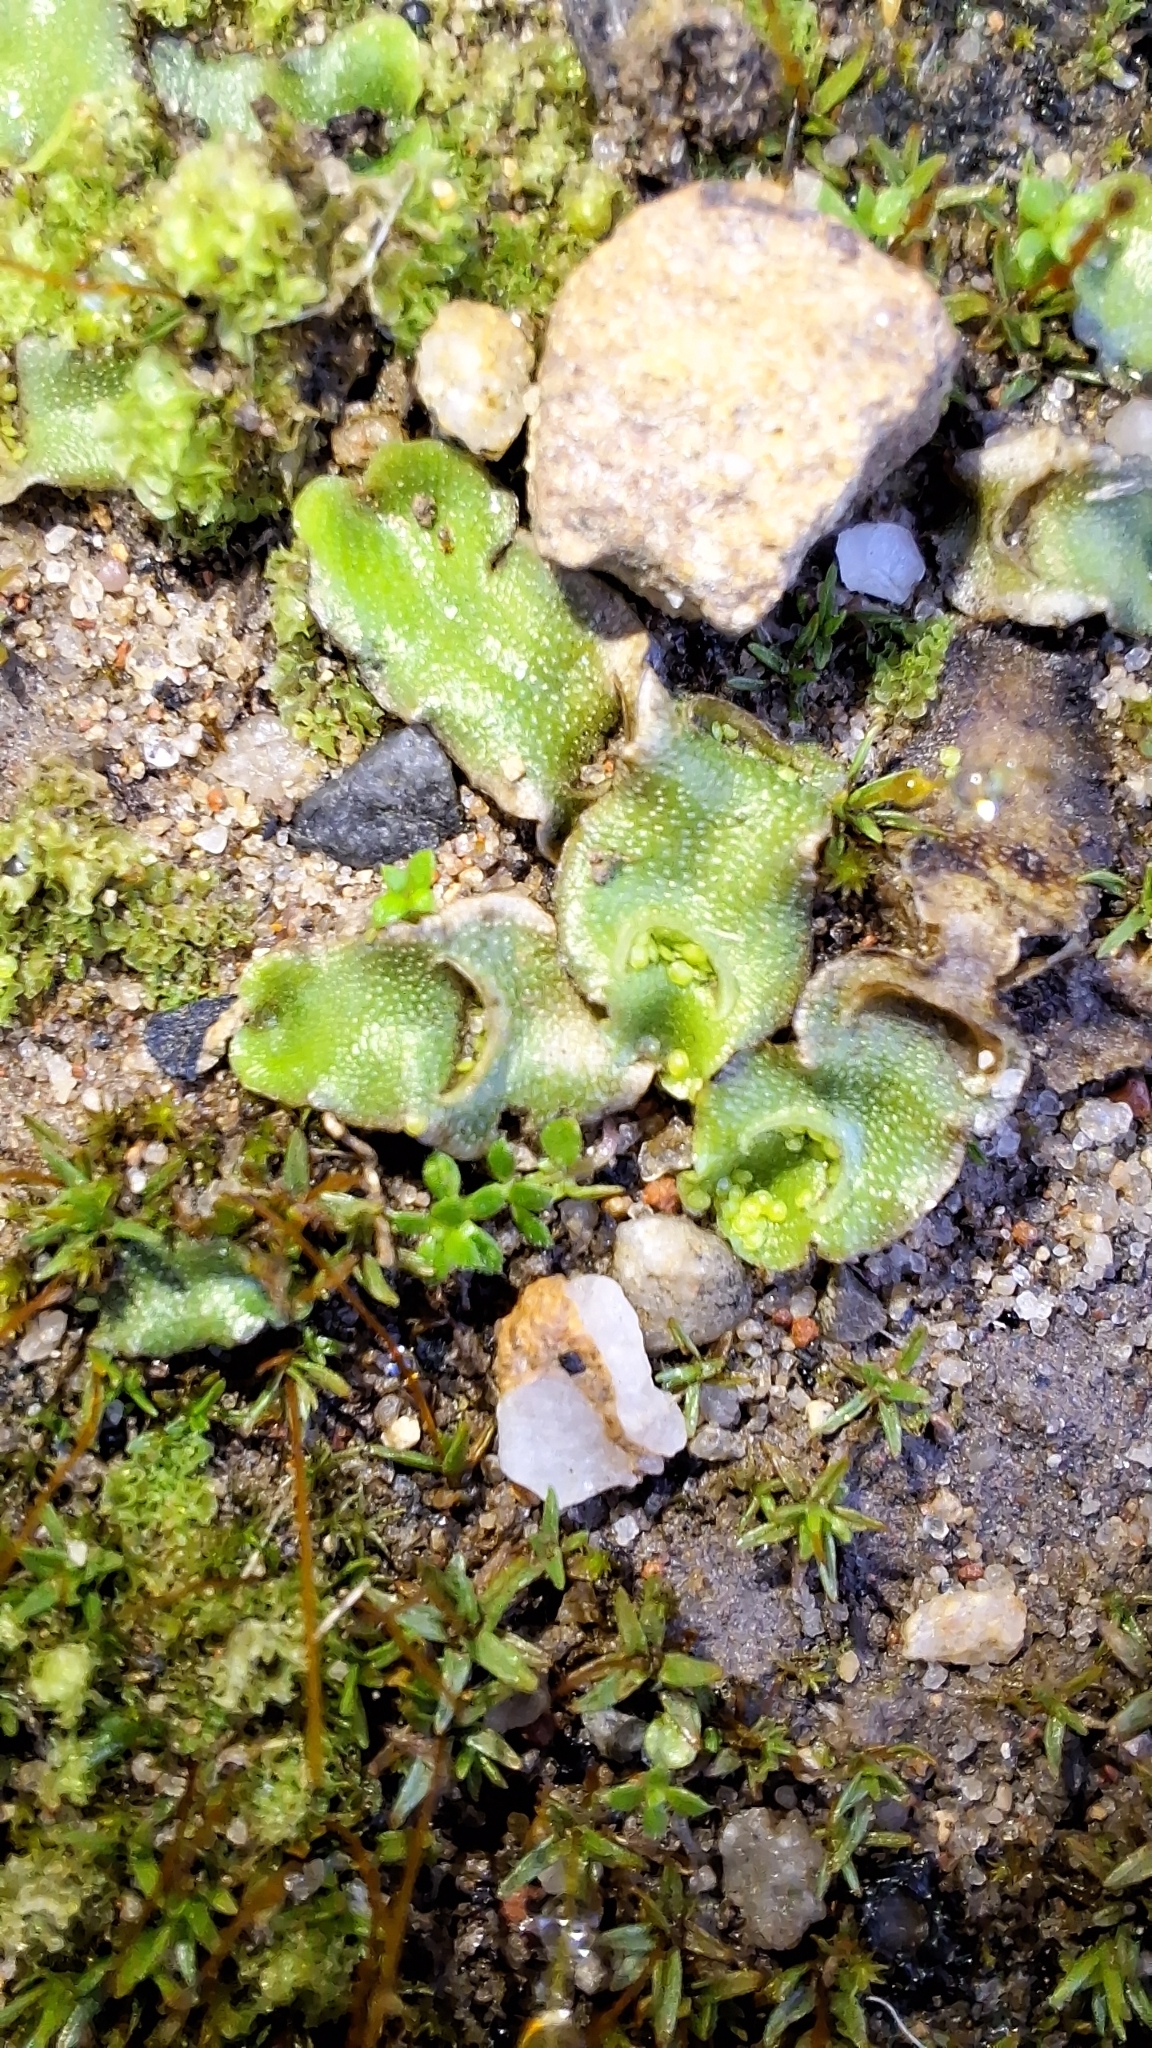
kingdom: Plantae
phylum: Marchantiophyta
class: Marchantiopsida
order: Lunulariales
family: Lunulariaceae
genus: Lunularia
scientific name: Lunularia cruciata
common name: Crescent-cup liverwort
